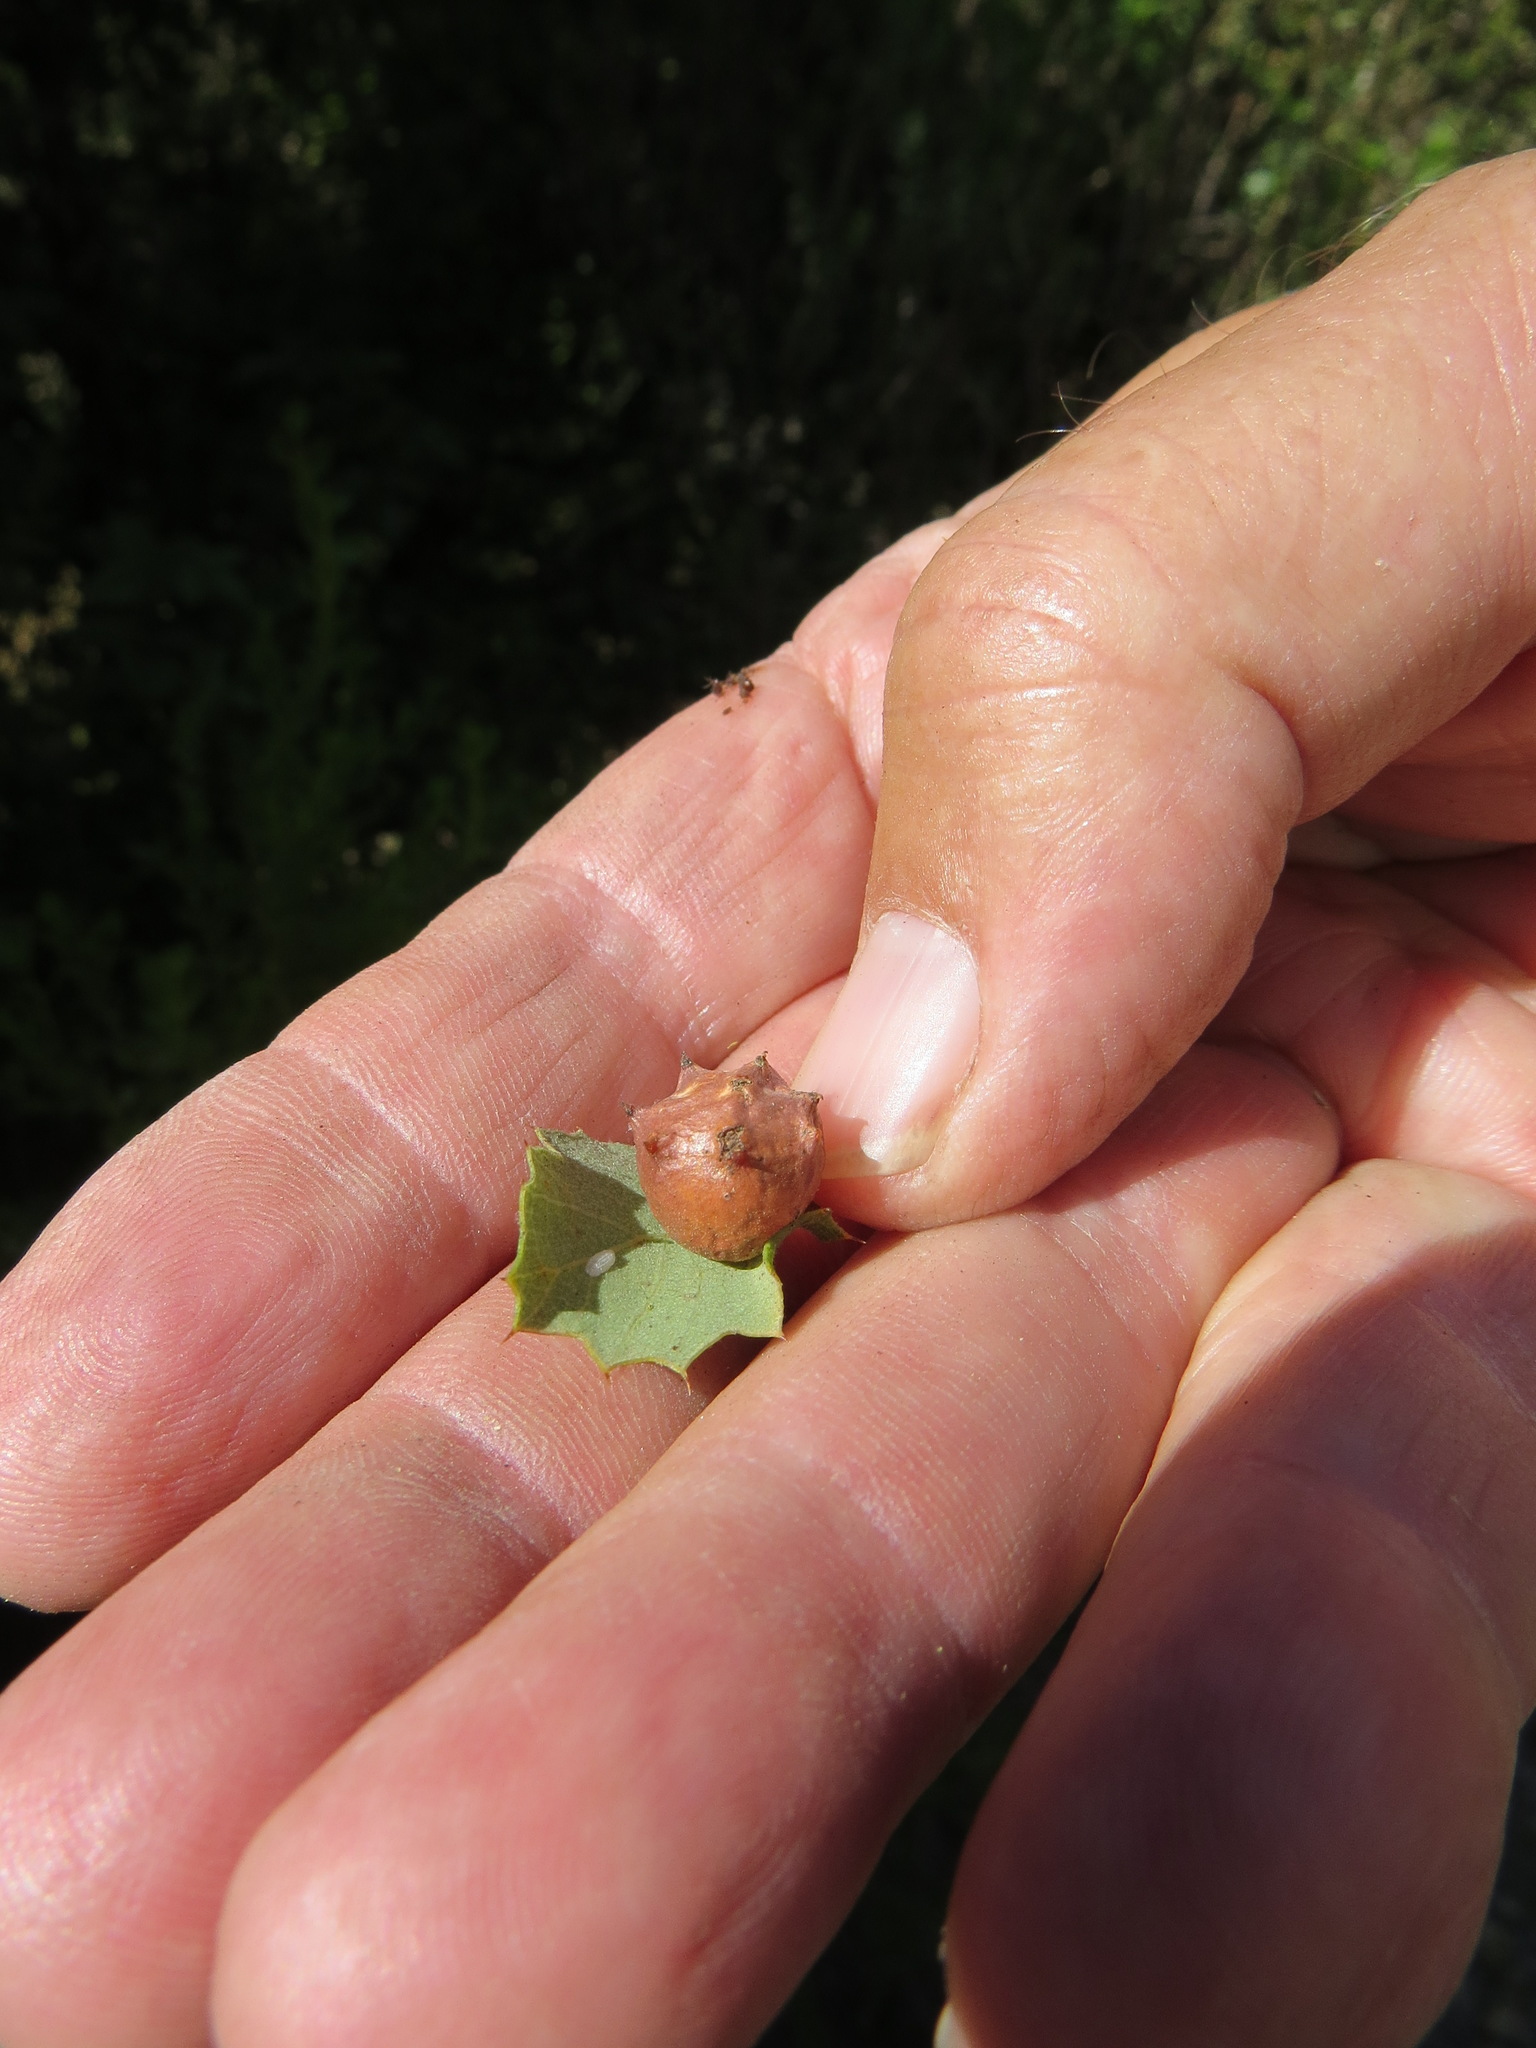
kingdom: Animalia
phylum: Arthropoda
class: Insecta
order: Hymenoptera
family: Cynipidae
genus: Andricus
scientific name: Andricus
